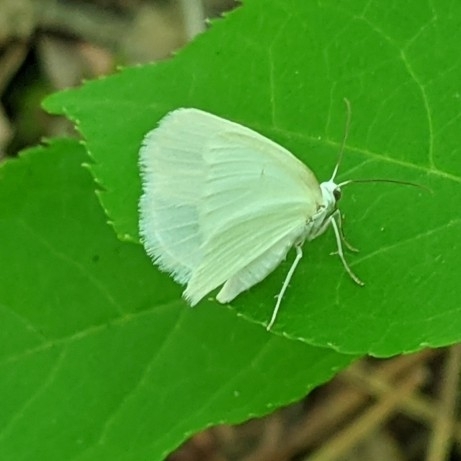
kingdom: Animalia
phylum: Arthropoda
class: Insecta
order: Lepidoptera
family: Geometridae
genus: Lomographa
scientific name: Lomographa vestaliata
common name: White spring moth
